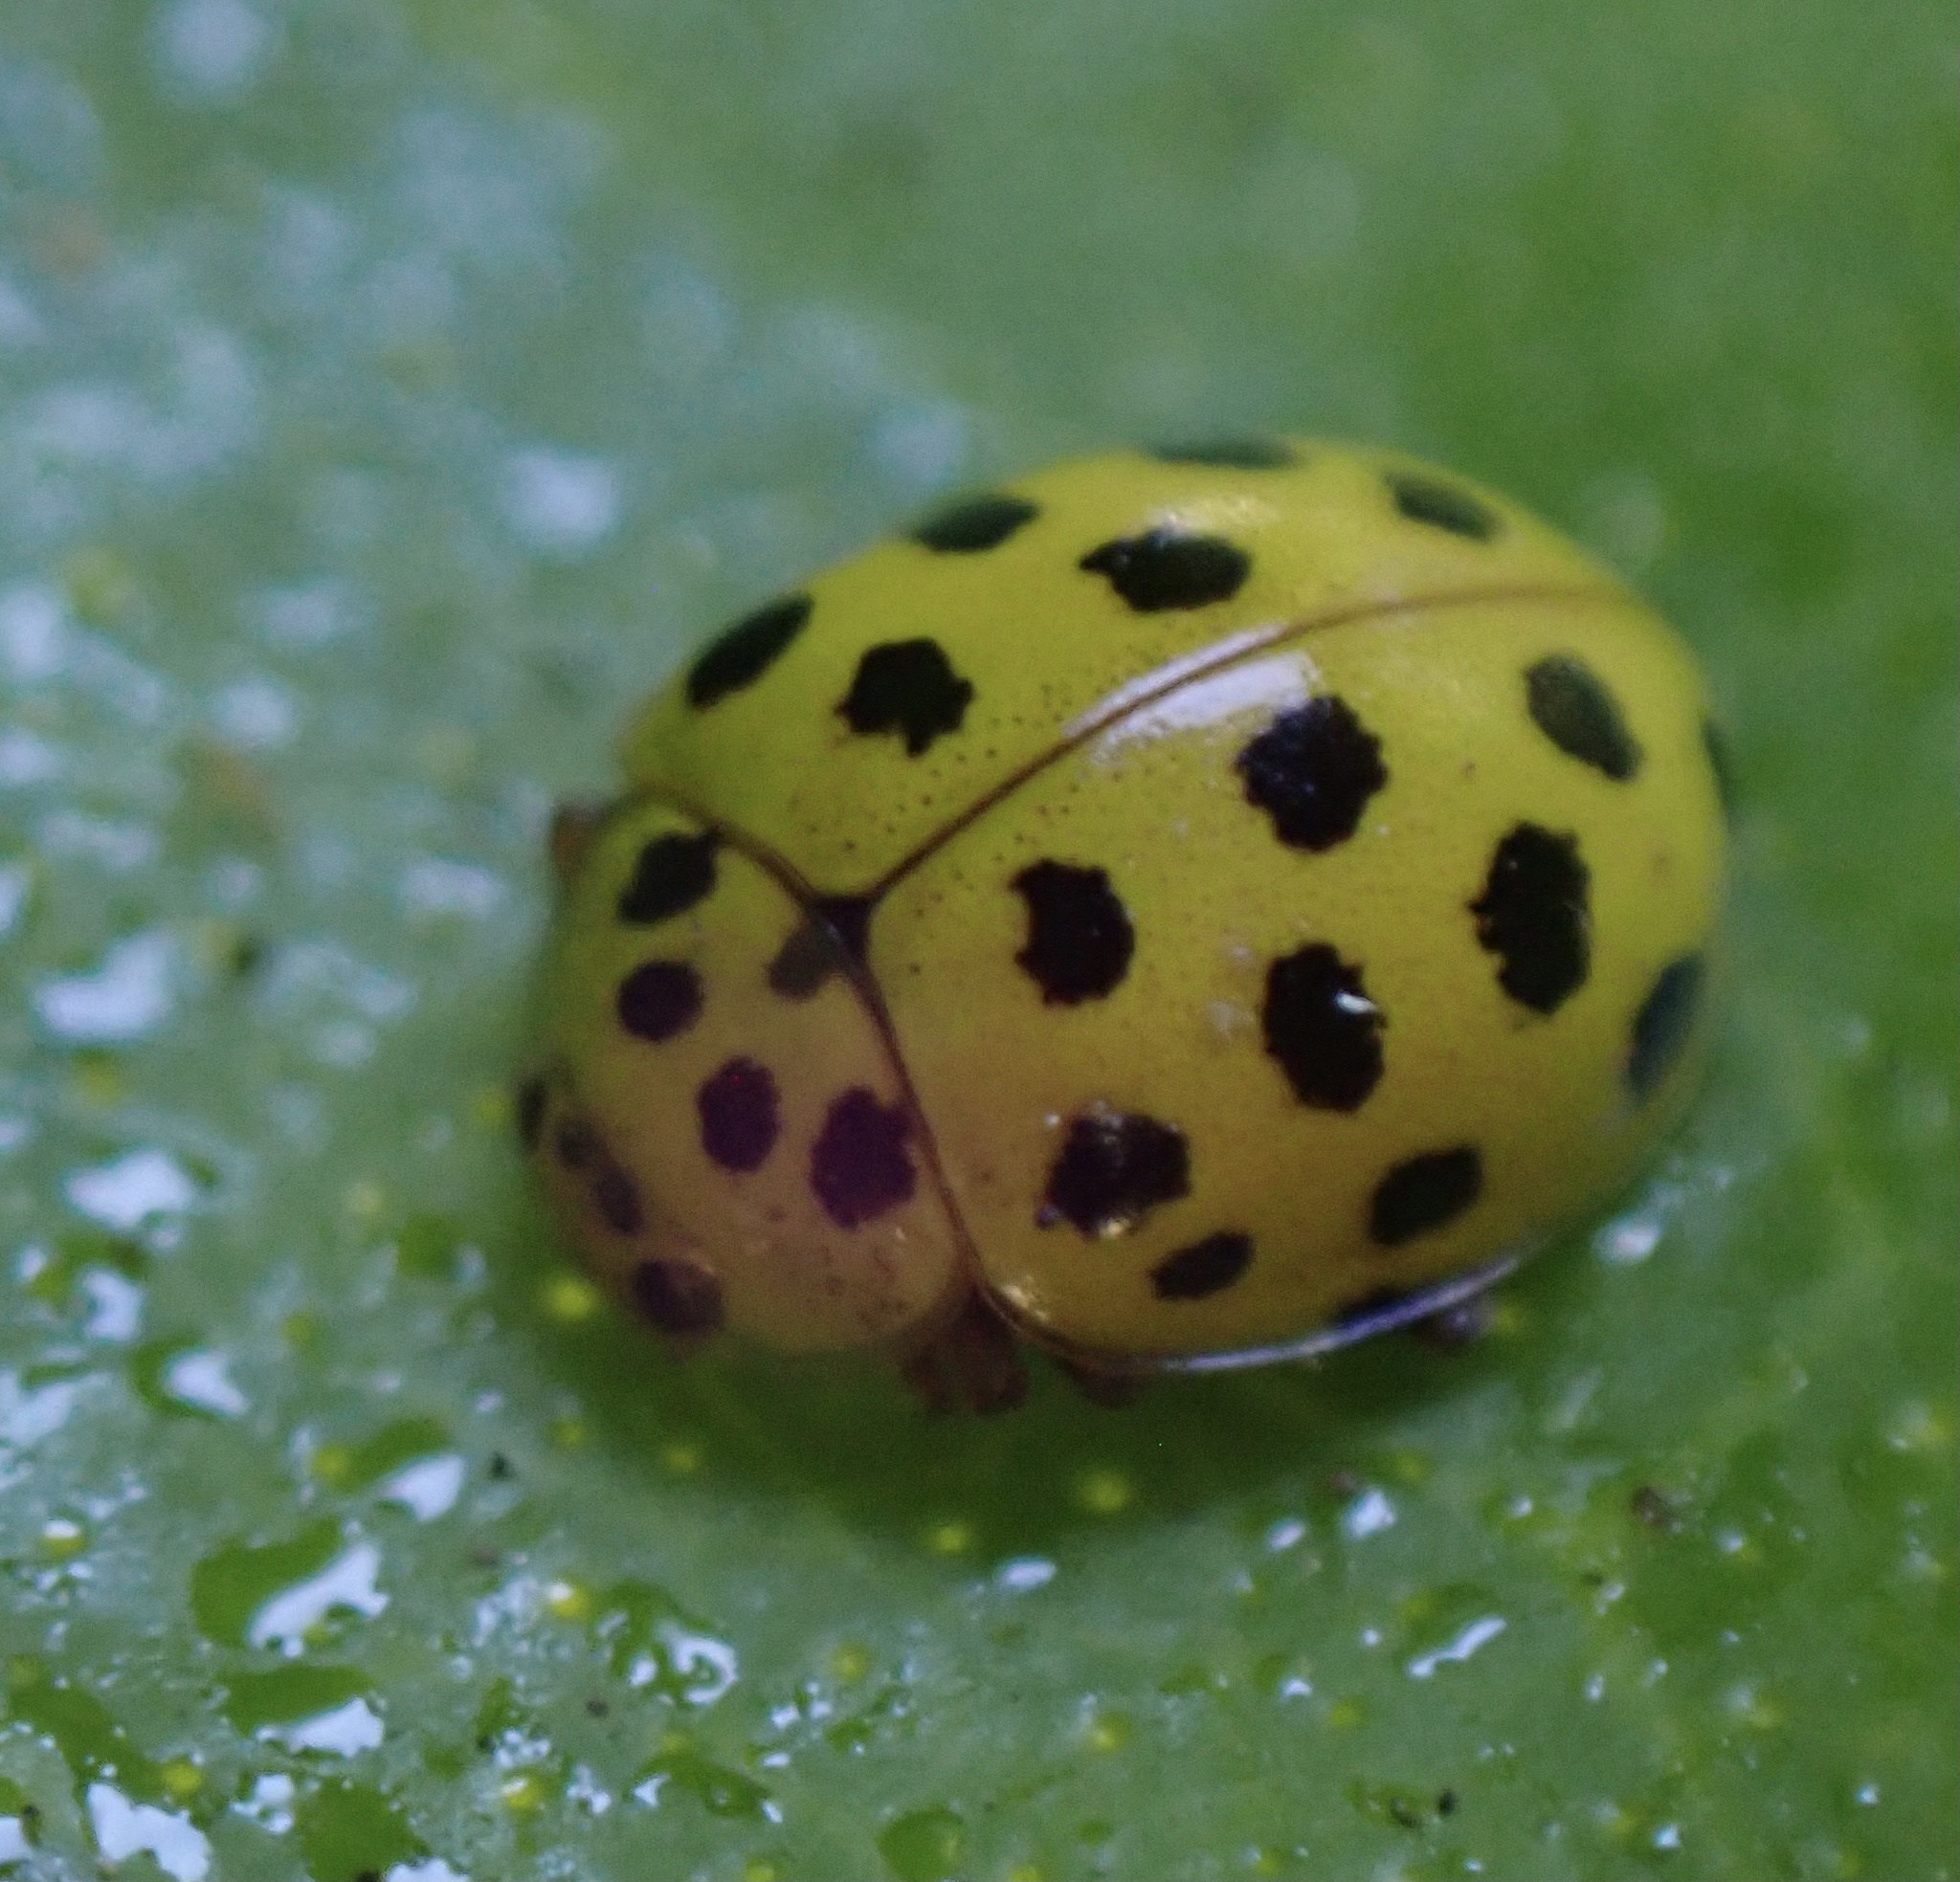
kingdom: Animalia
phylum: Arthropoda
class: Insecta
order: Coleoptera
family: Coccinellidae
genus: Psyllobora
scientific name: Psyllobora vigintiduopunctata
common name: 22-spot ladybird
